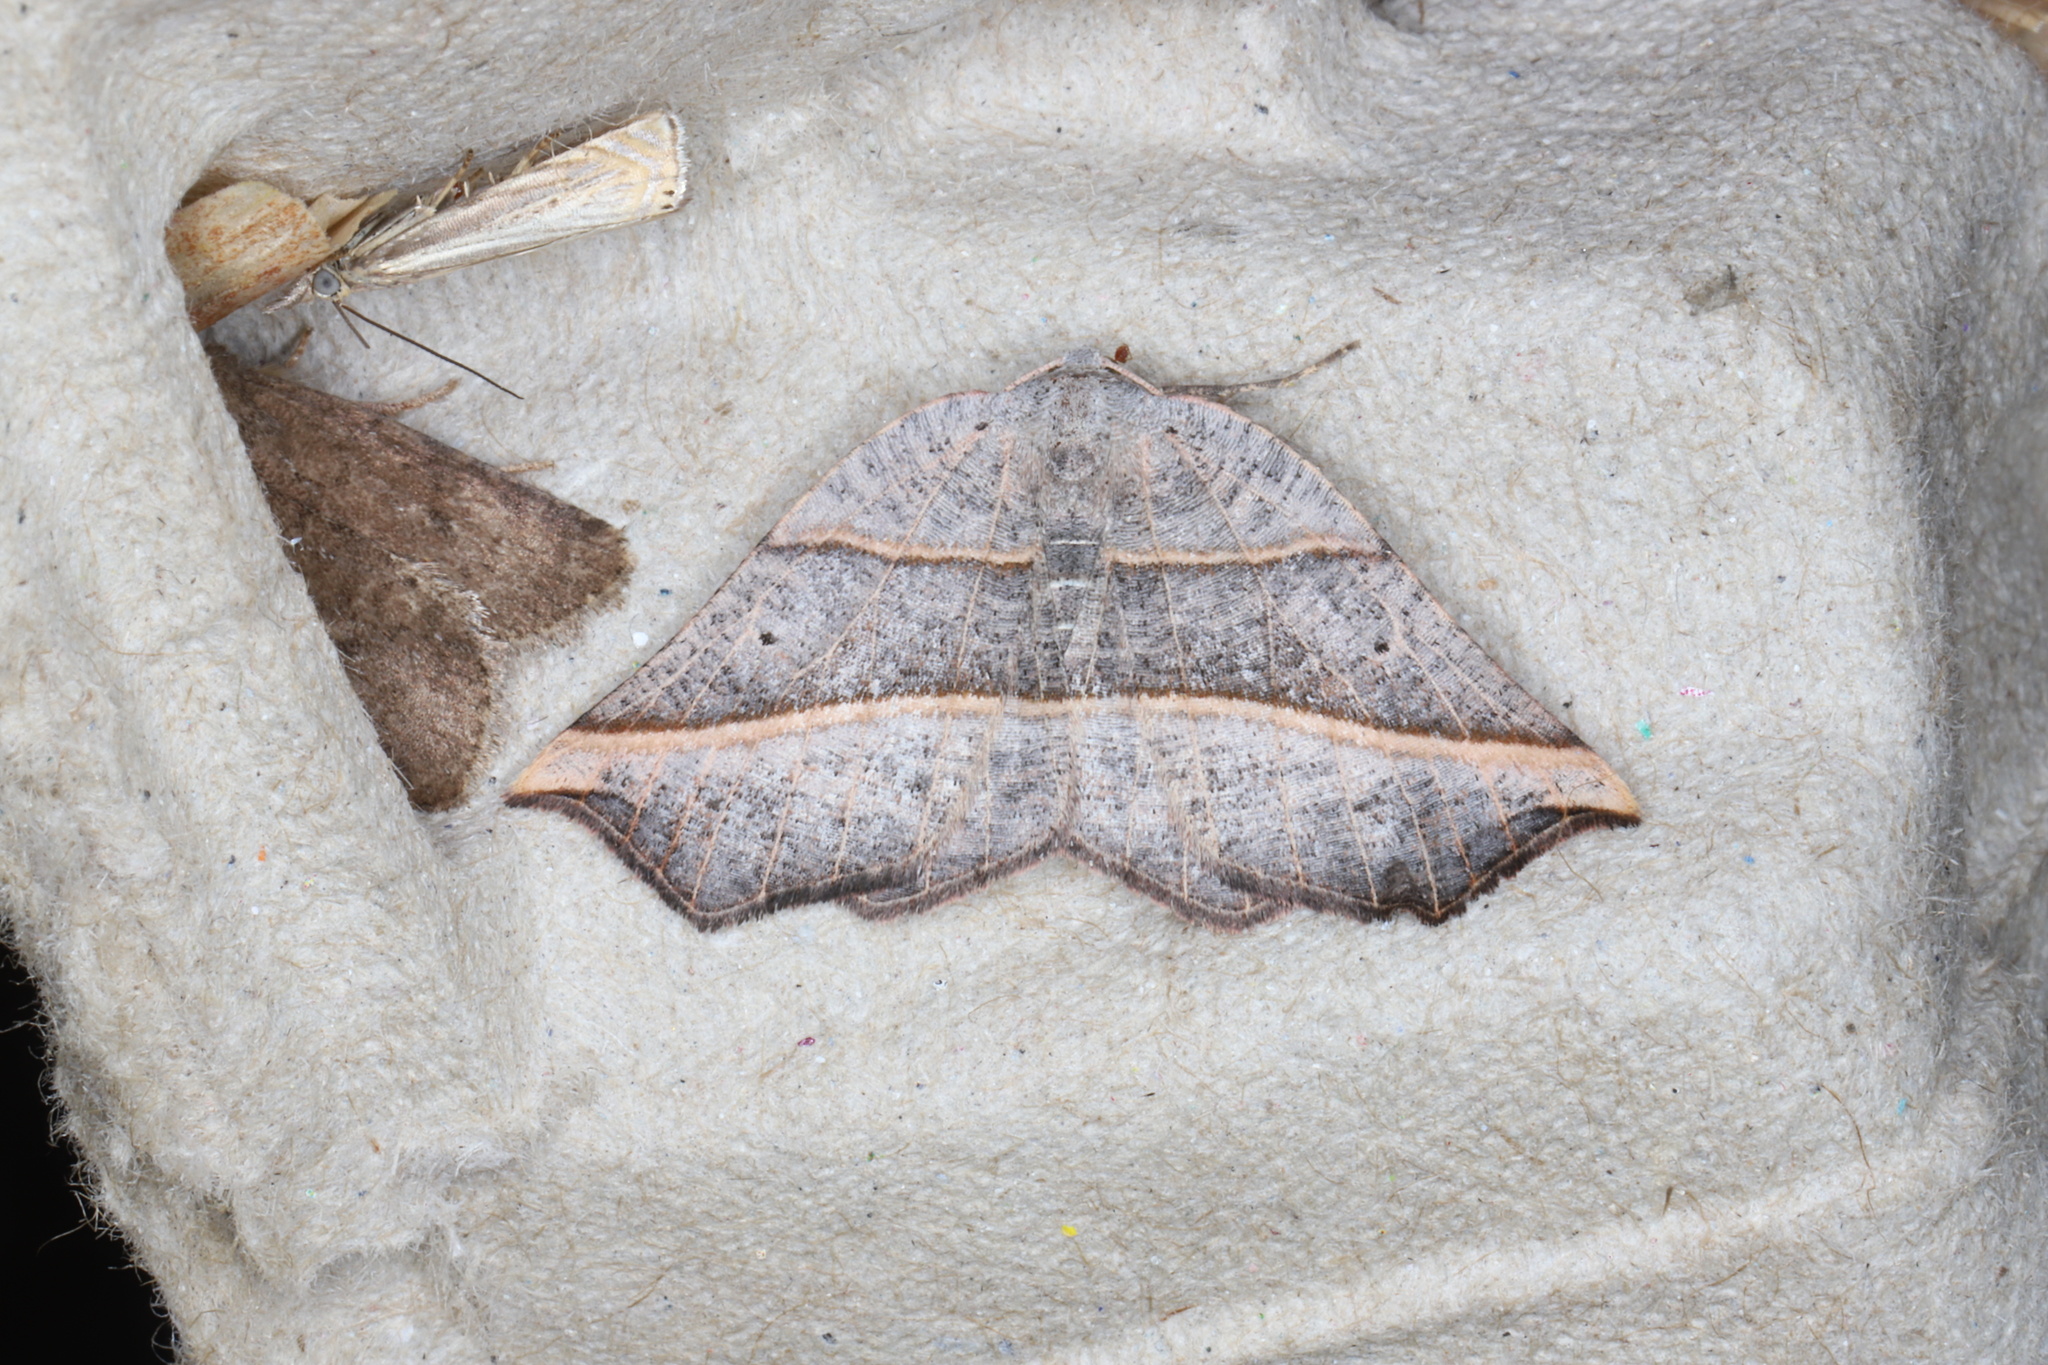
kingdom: Animalia
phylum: Arthropoda
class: Insecta
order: Lepidoptera
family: Geometridae
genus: Metanema
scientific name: Metanema determinata
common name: Dark metanema
